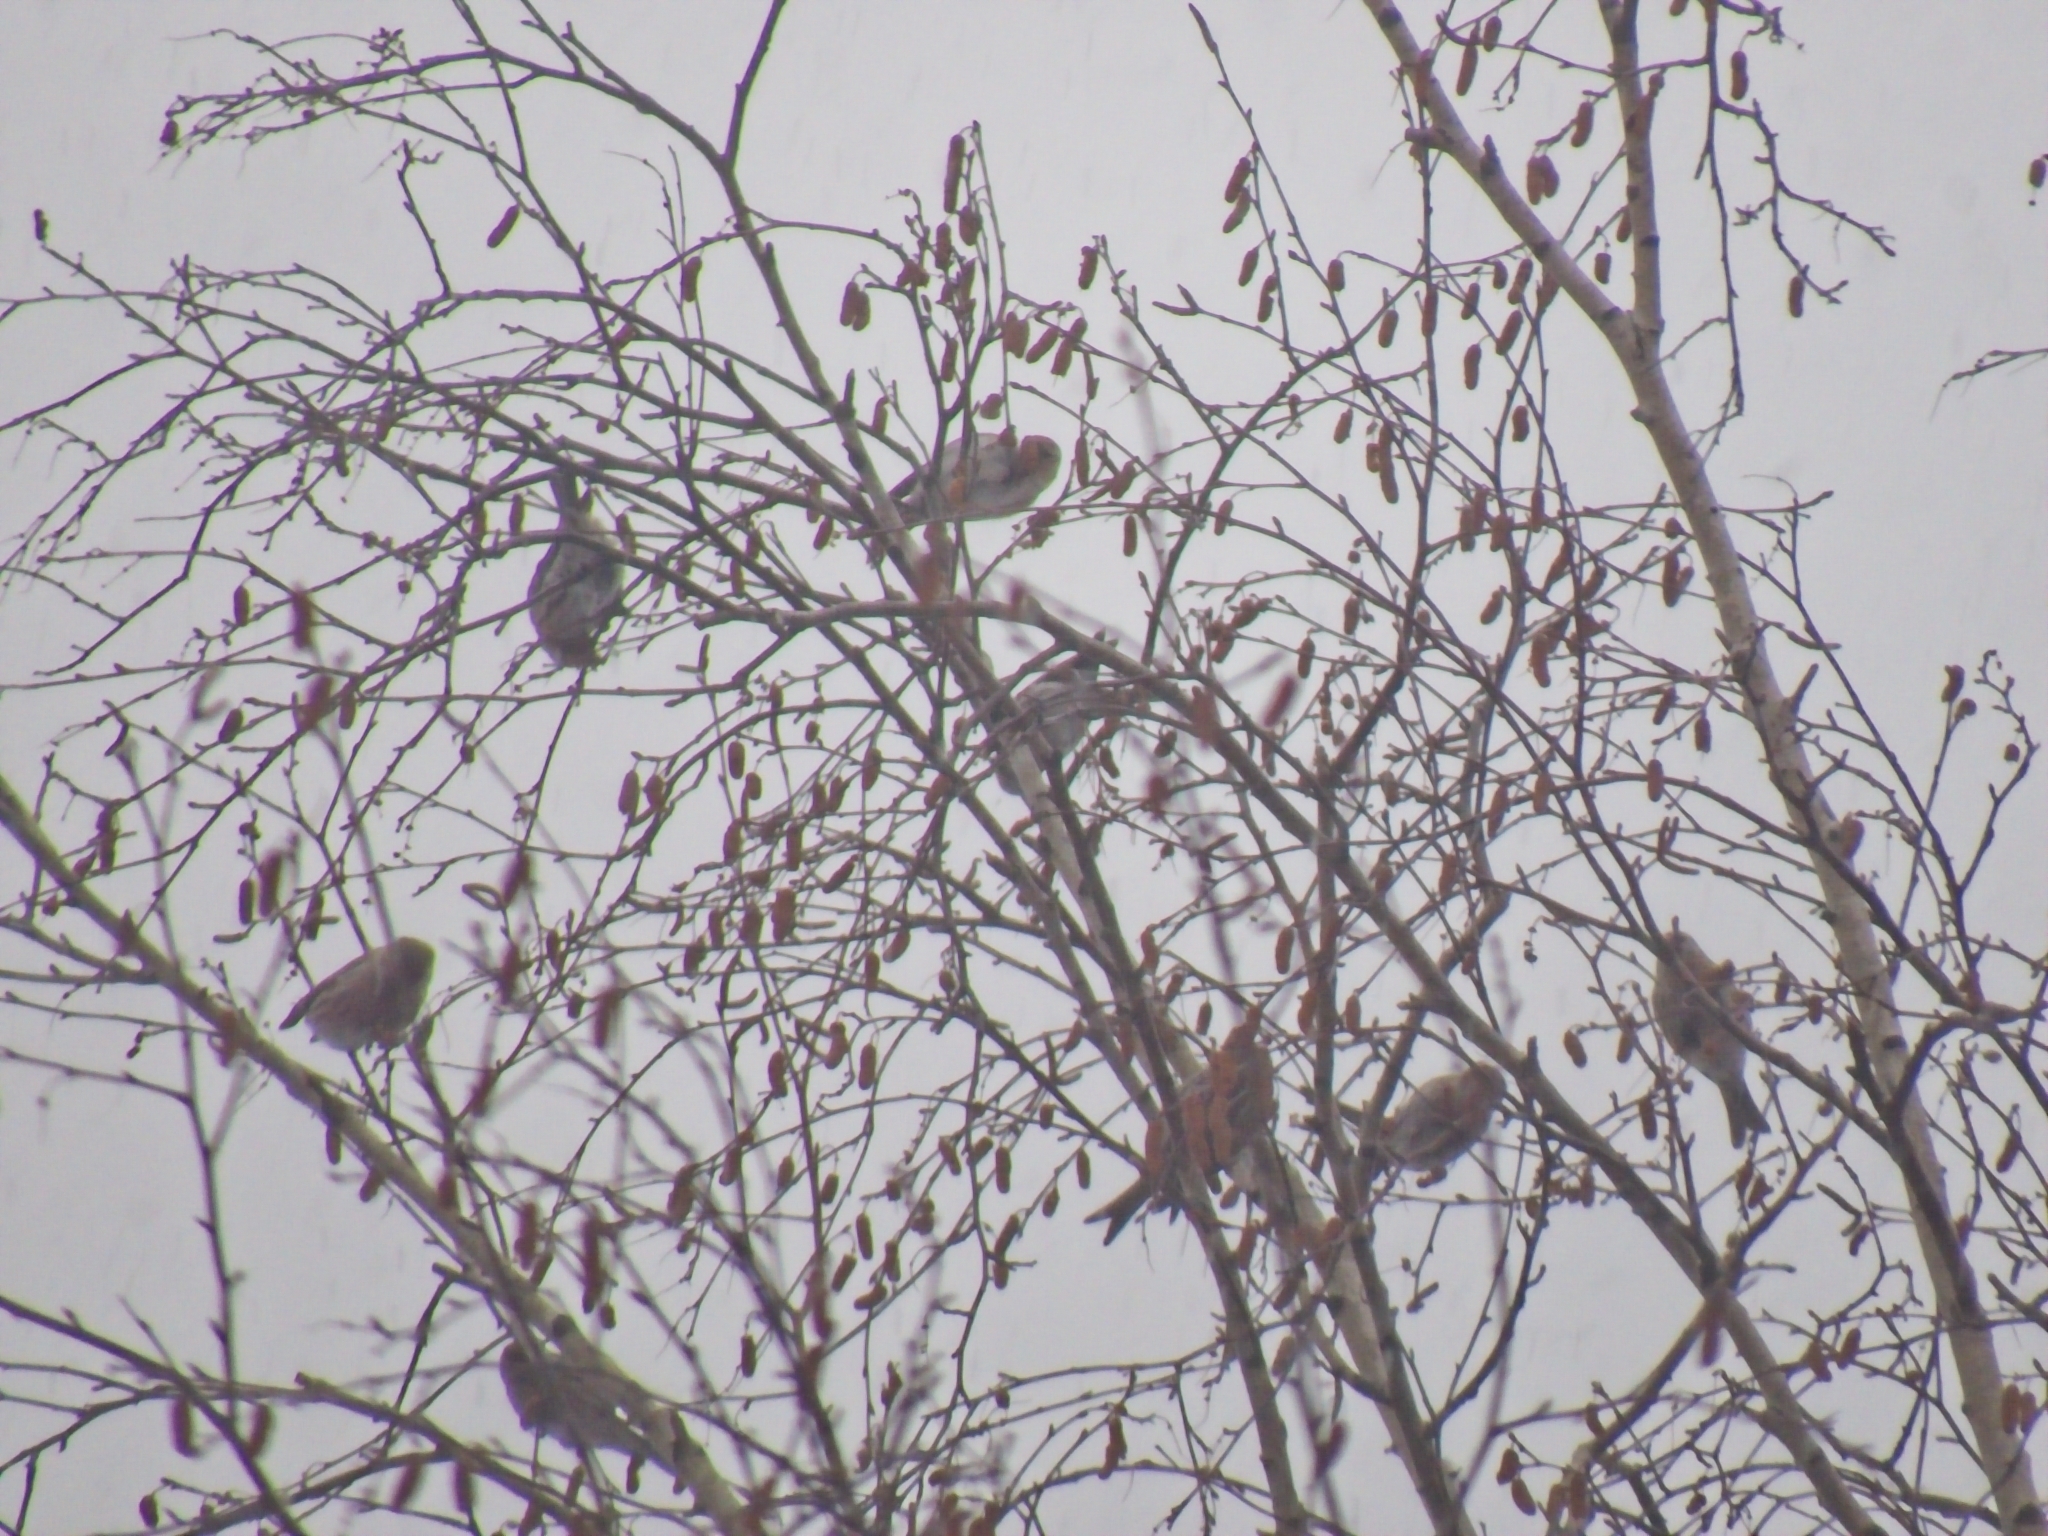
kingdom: Animalia
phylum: Chordata
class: Aves
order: Passeriformes
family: Fringillidae
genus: Acanthis
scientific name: Acanthis flammea
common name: Common redpoll
